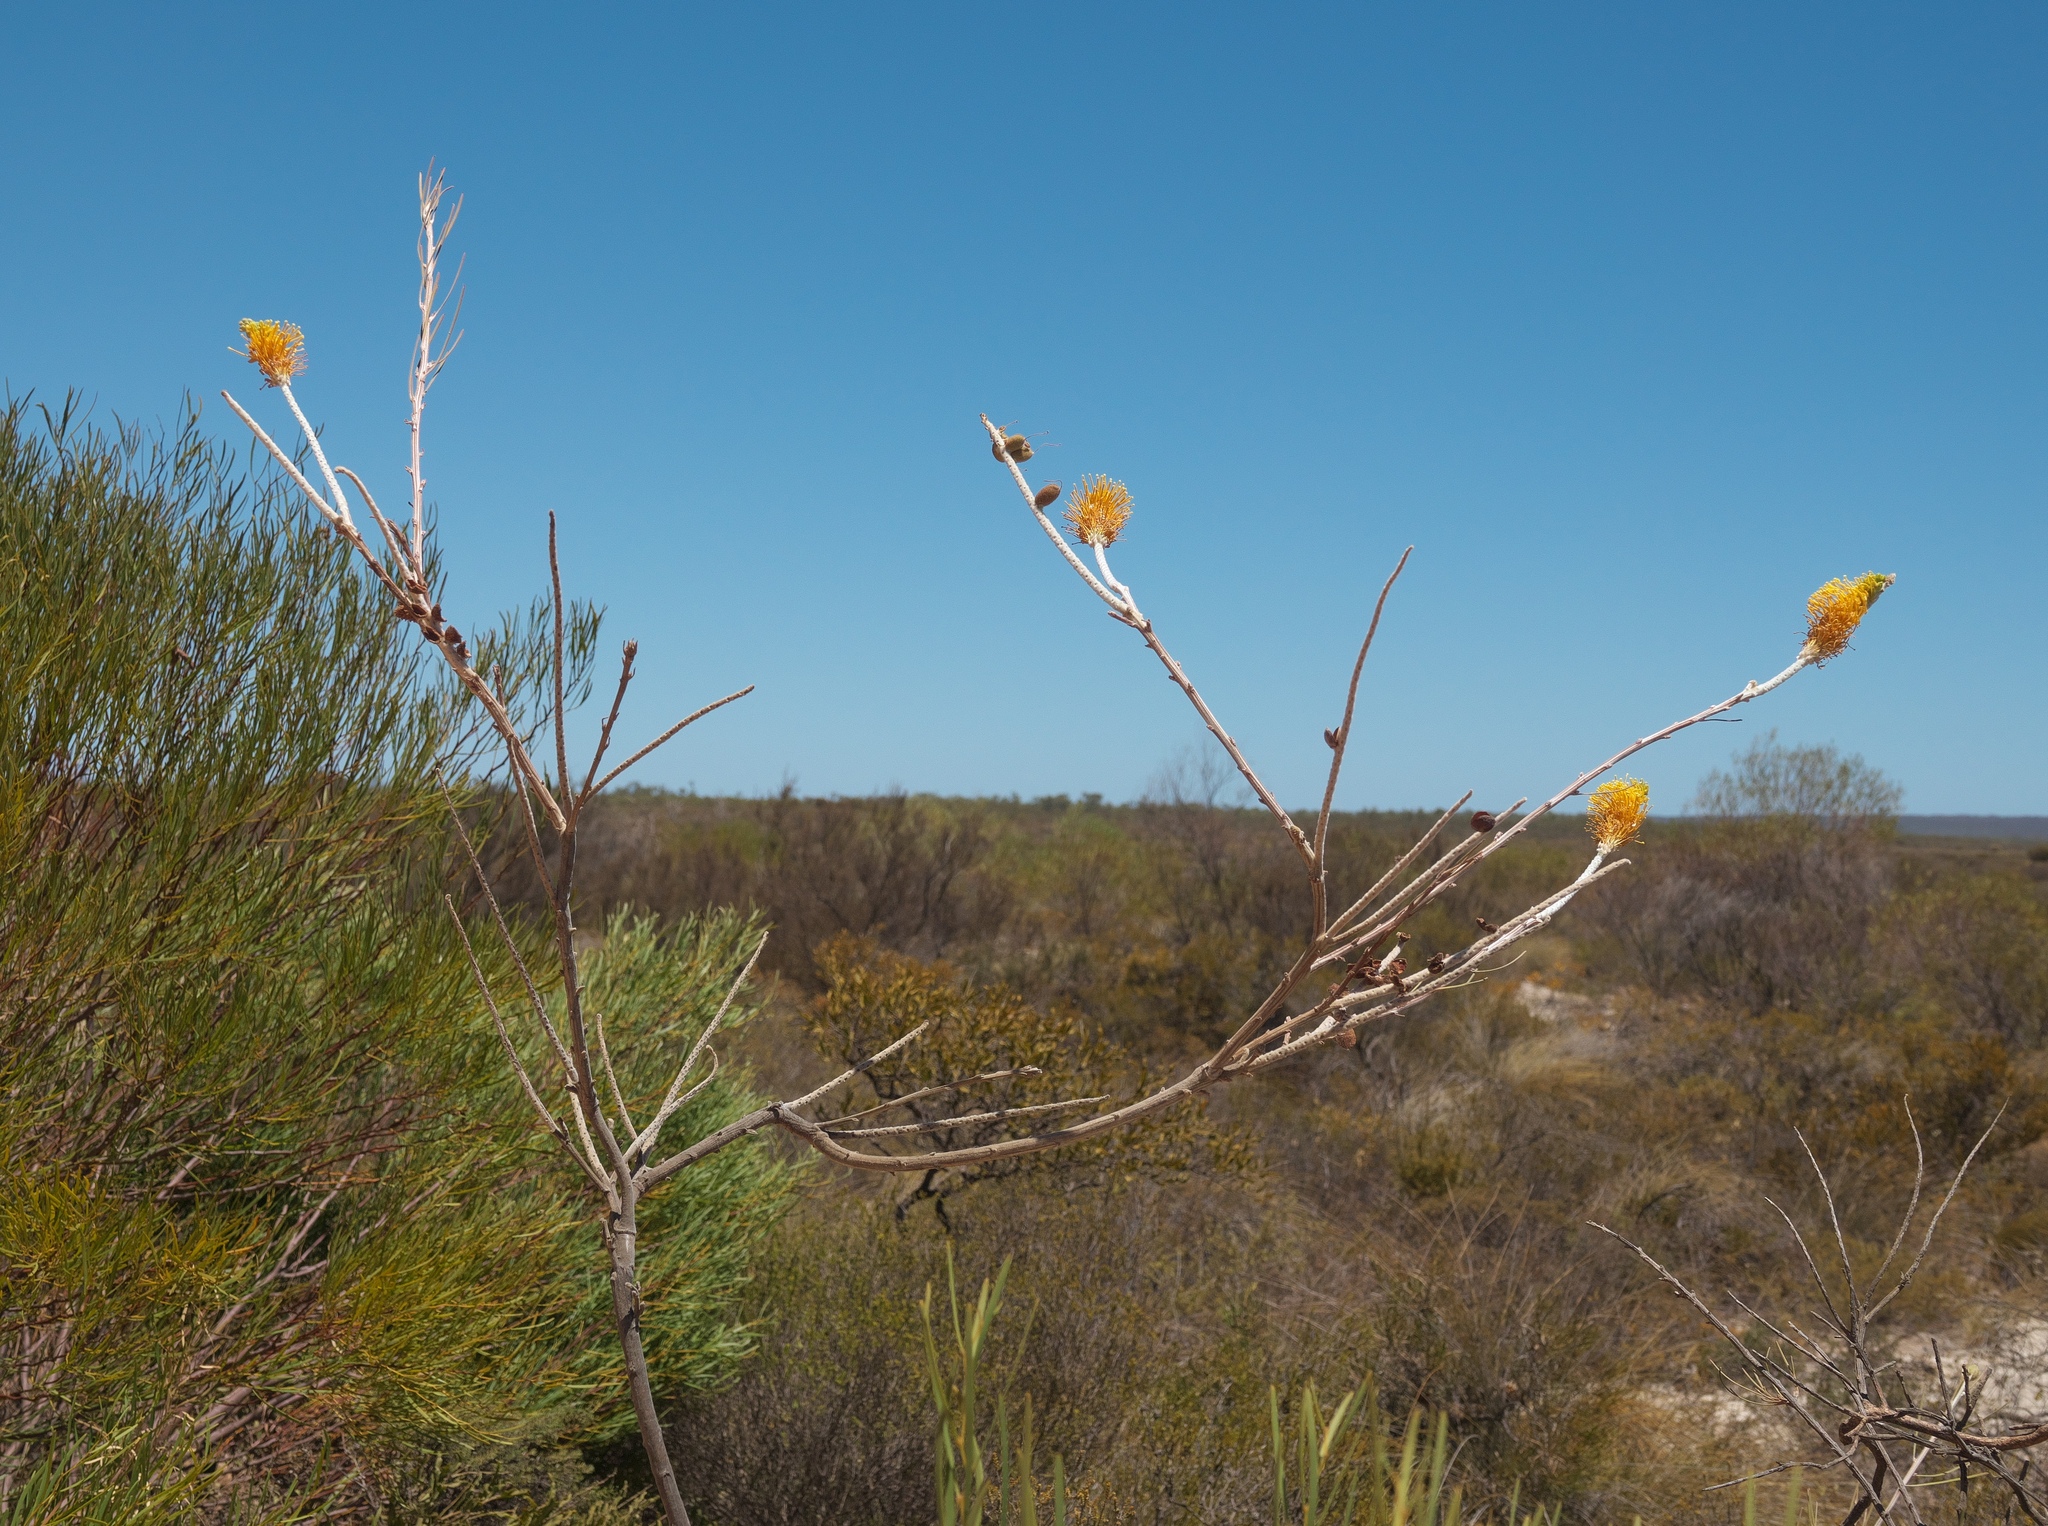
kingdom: Plantae
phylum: Tracheophyta
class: Magnoliopsida
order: Proteales
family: Proteaceae
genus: Grevillea
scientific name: Grevillea eriostachya
